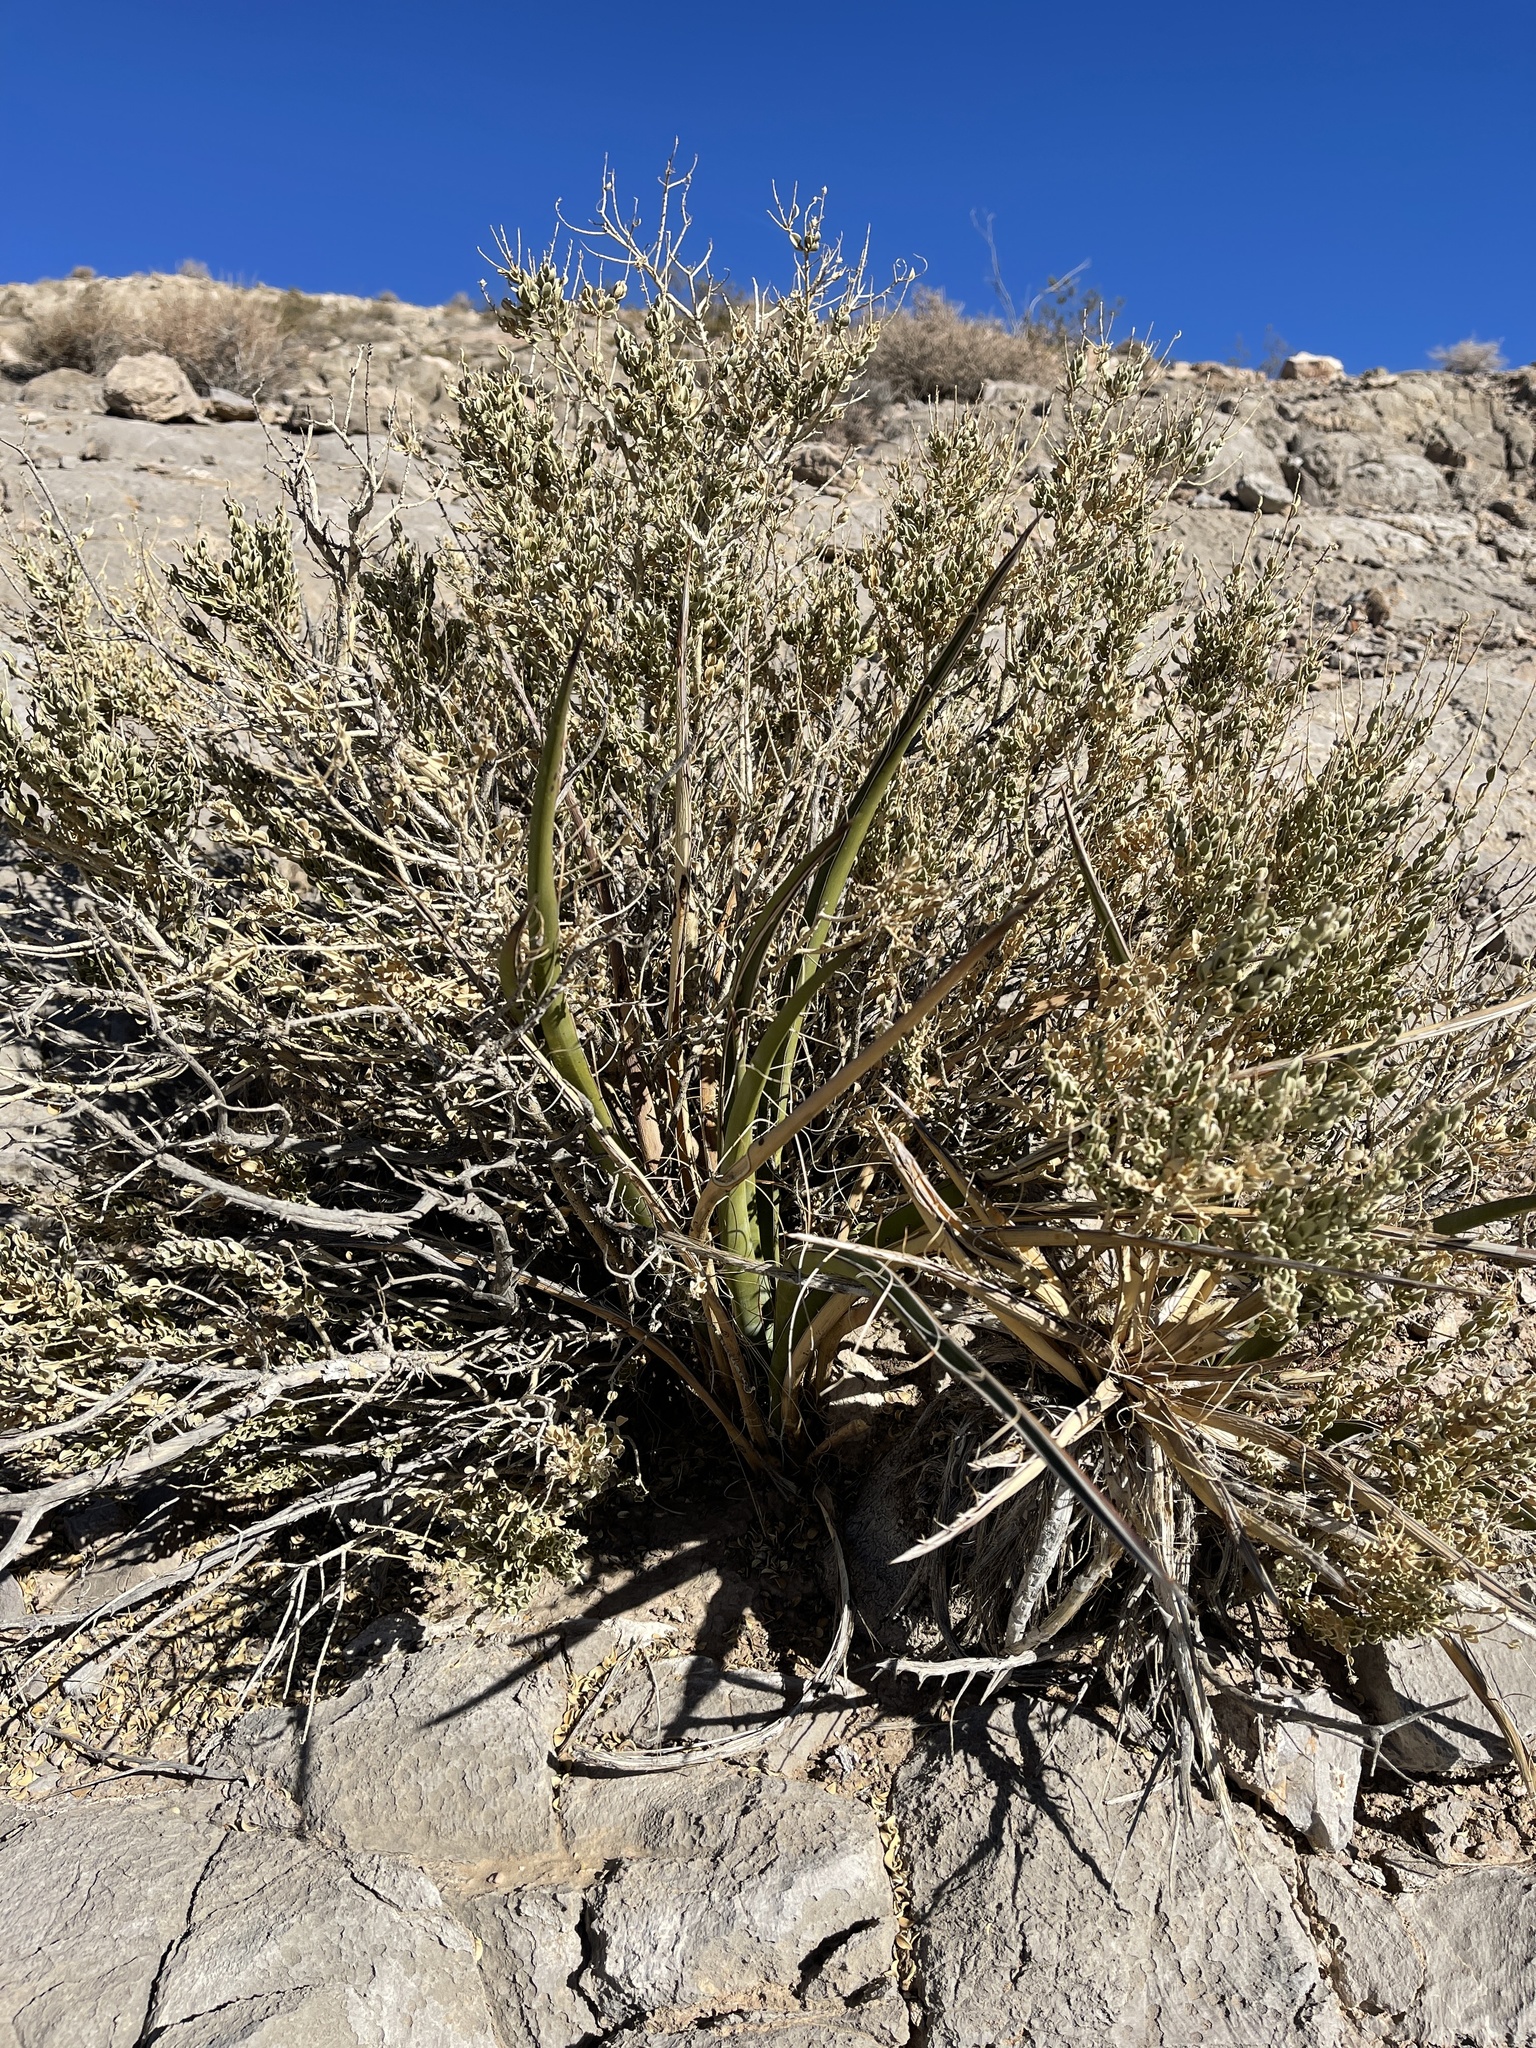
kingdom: Plantae
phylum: Tracheophyta
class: Magnoliopsida
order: Celastrales
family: Celastraceae
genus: Mortonia
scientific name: Mortonia utahensis
